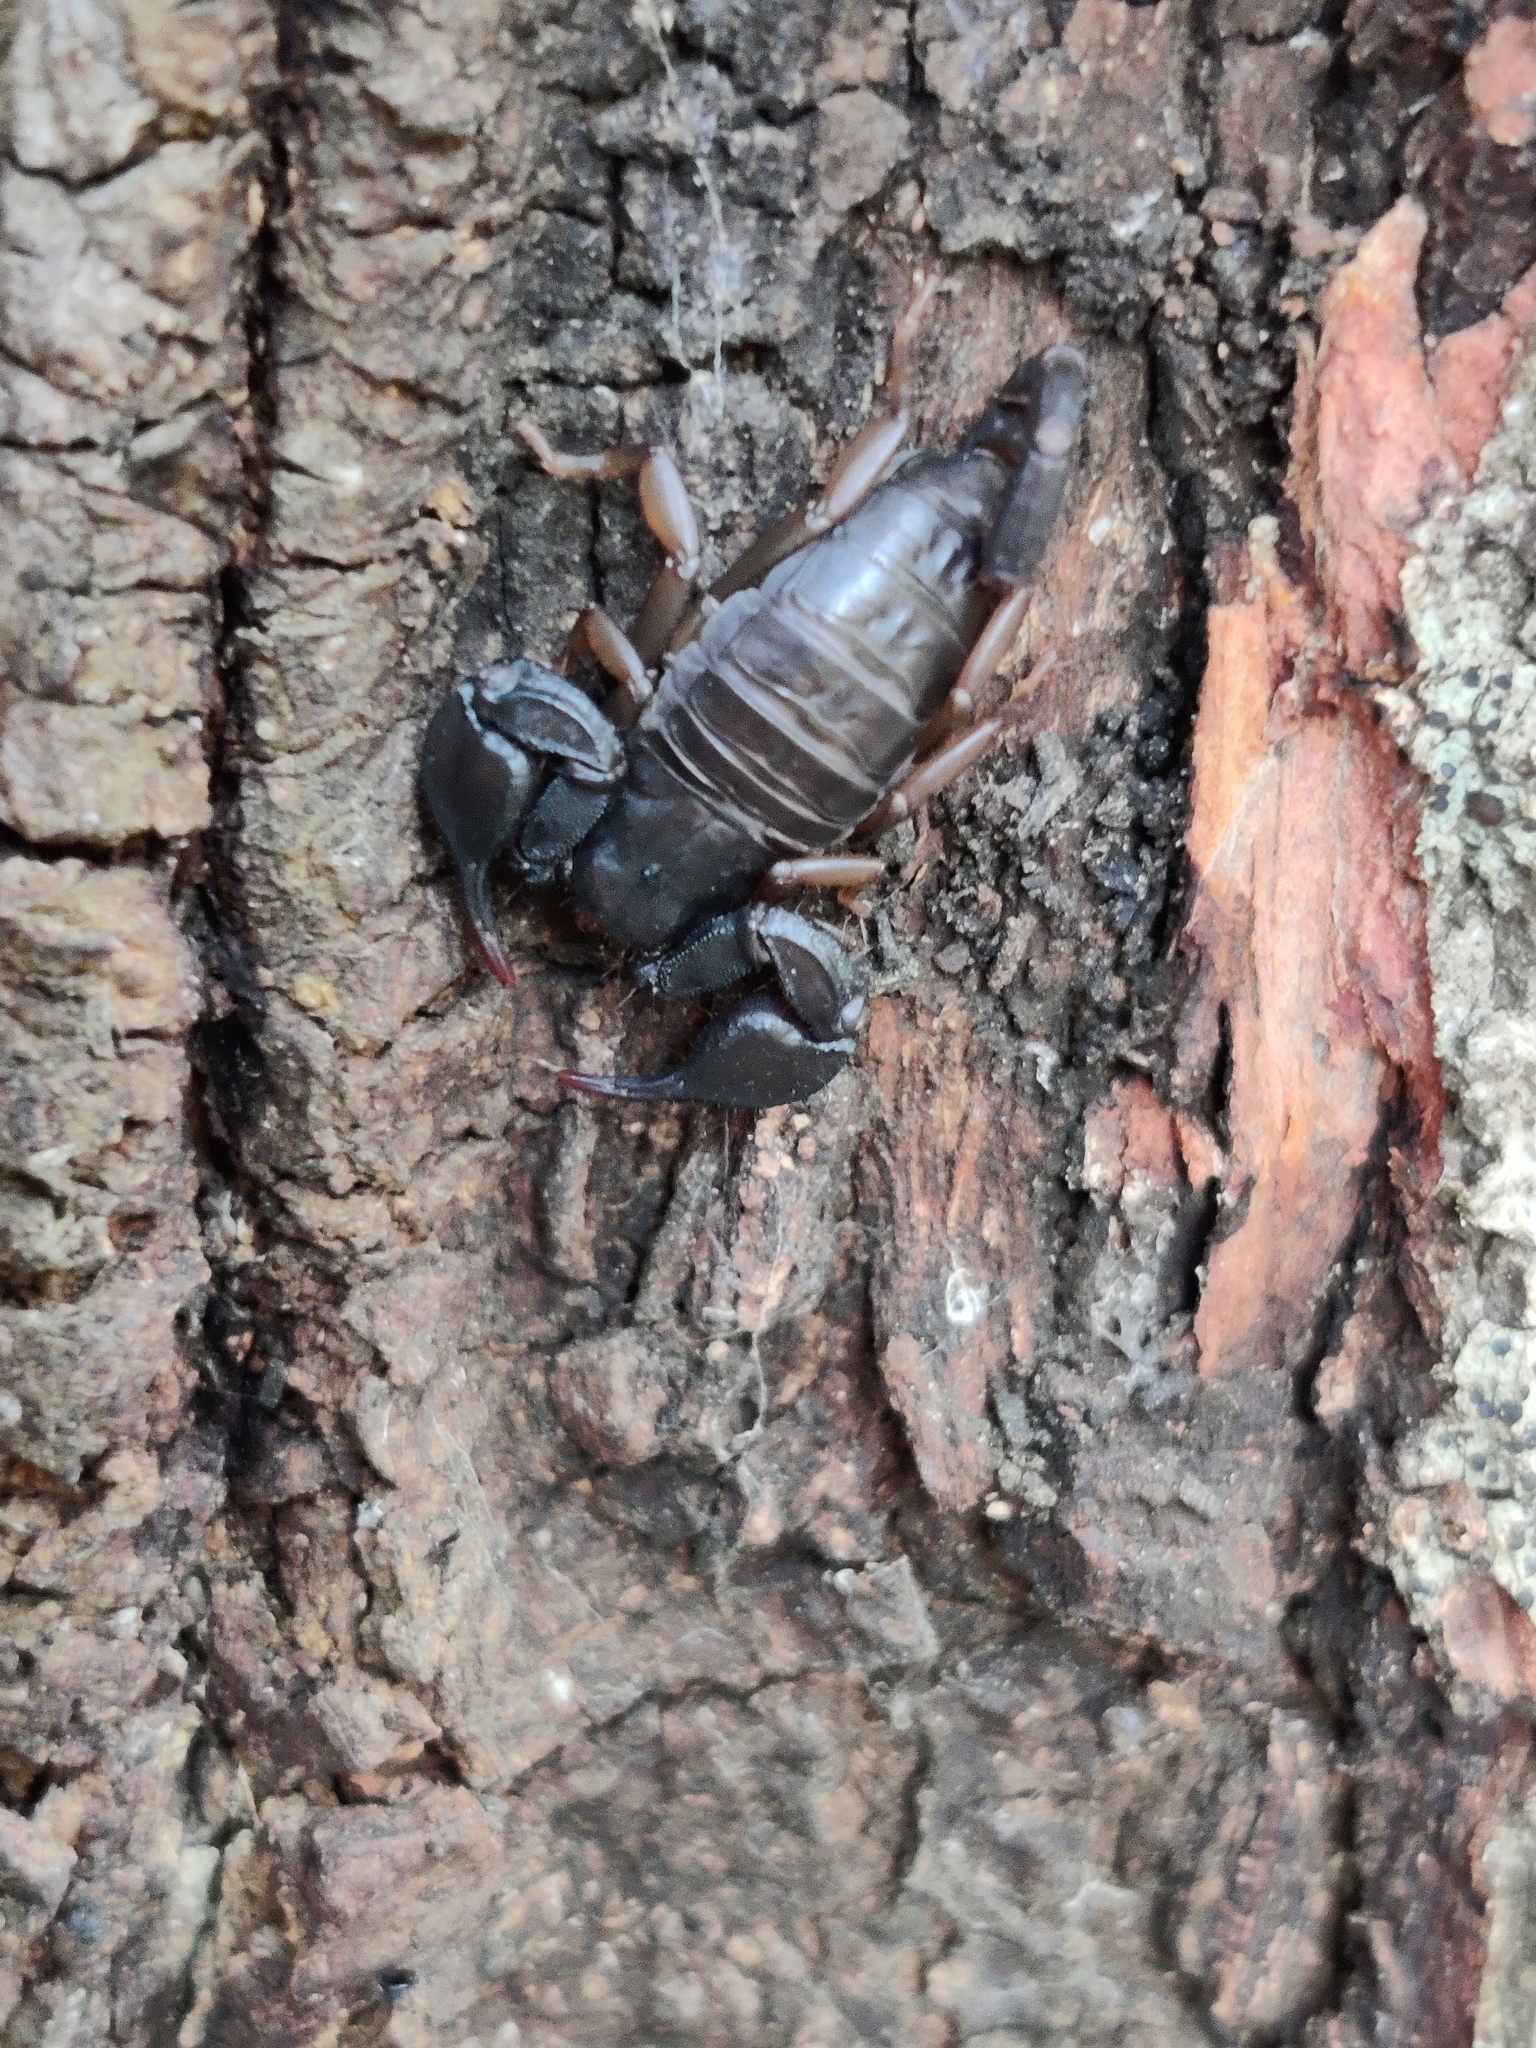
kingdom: Animalia
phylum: Arthropoda
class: Arachnida
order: Scorpiones
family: Euscorpiidae
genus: Euscorpius
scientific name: Euscorpius
